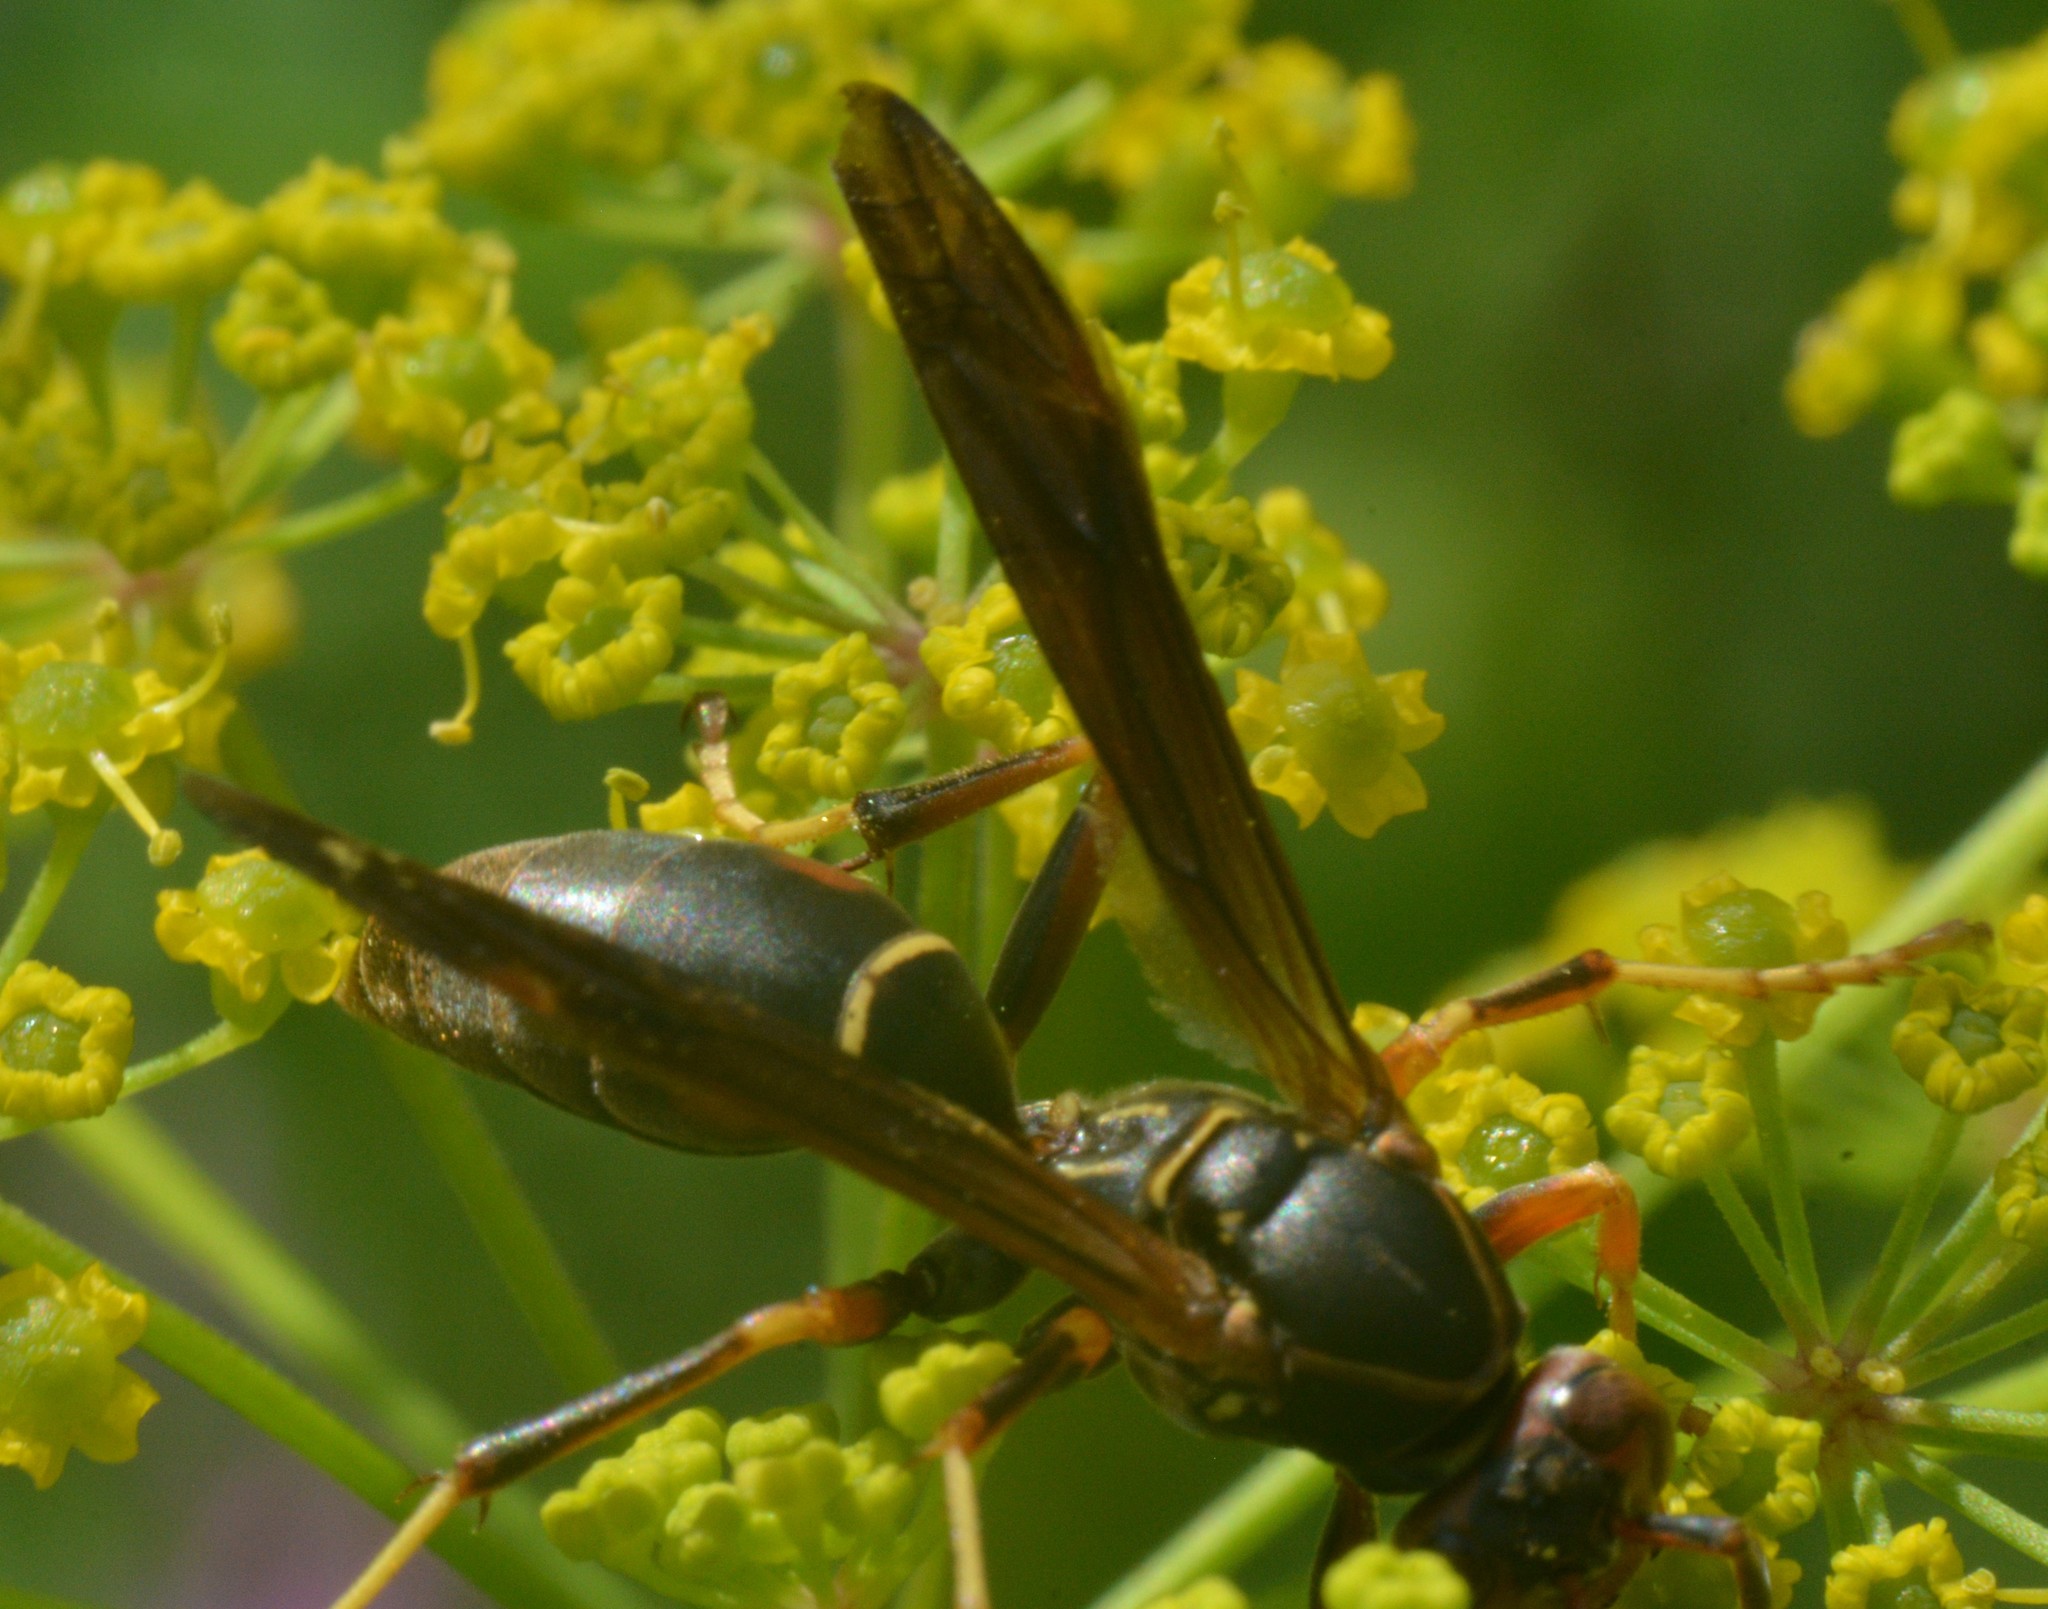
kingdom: Animalia
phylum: Arthropoda
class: Insecta
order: Hymenoptera
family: Eumenidae
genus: Polistes
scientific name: Polistes fuscatus
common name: Dark paper wasp
